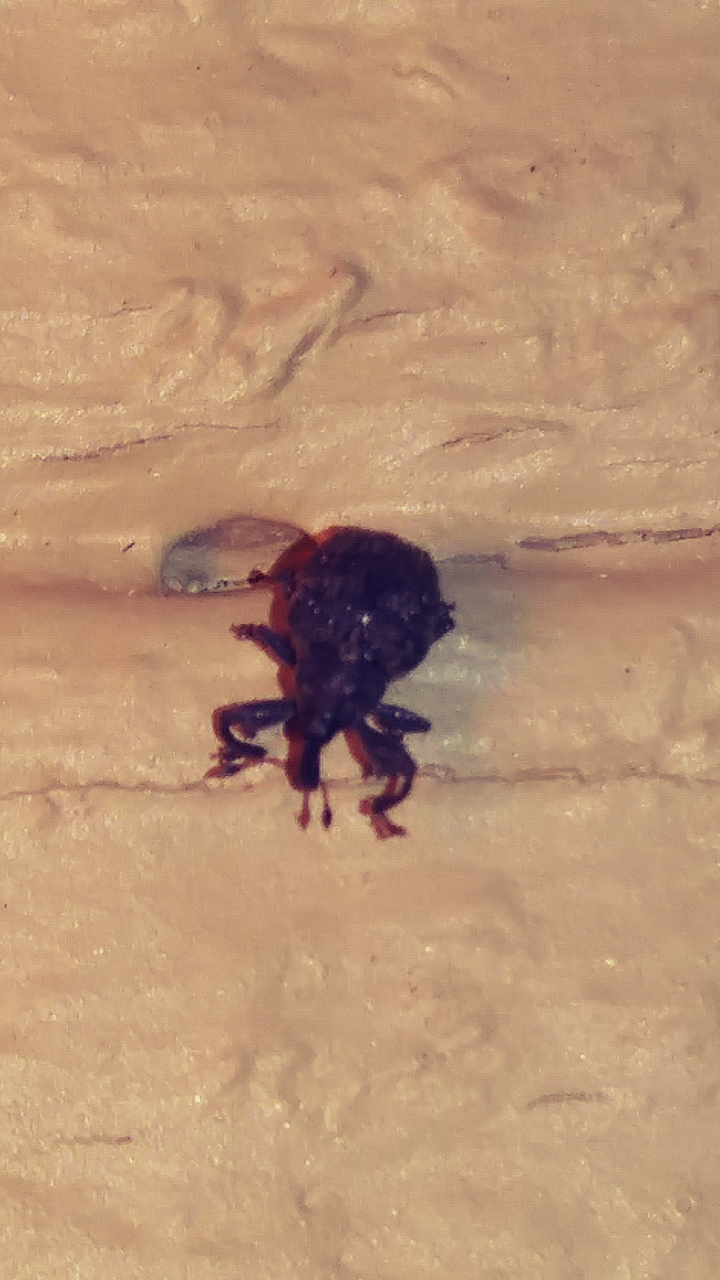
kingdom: Animalia
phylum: Arthropoda
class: Insecta
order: Coleoptera
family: Curculionidae
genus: Odontopus
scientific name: Odontopus calceatus
